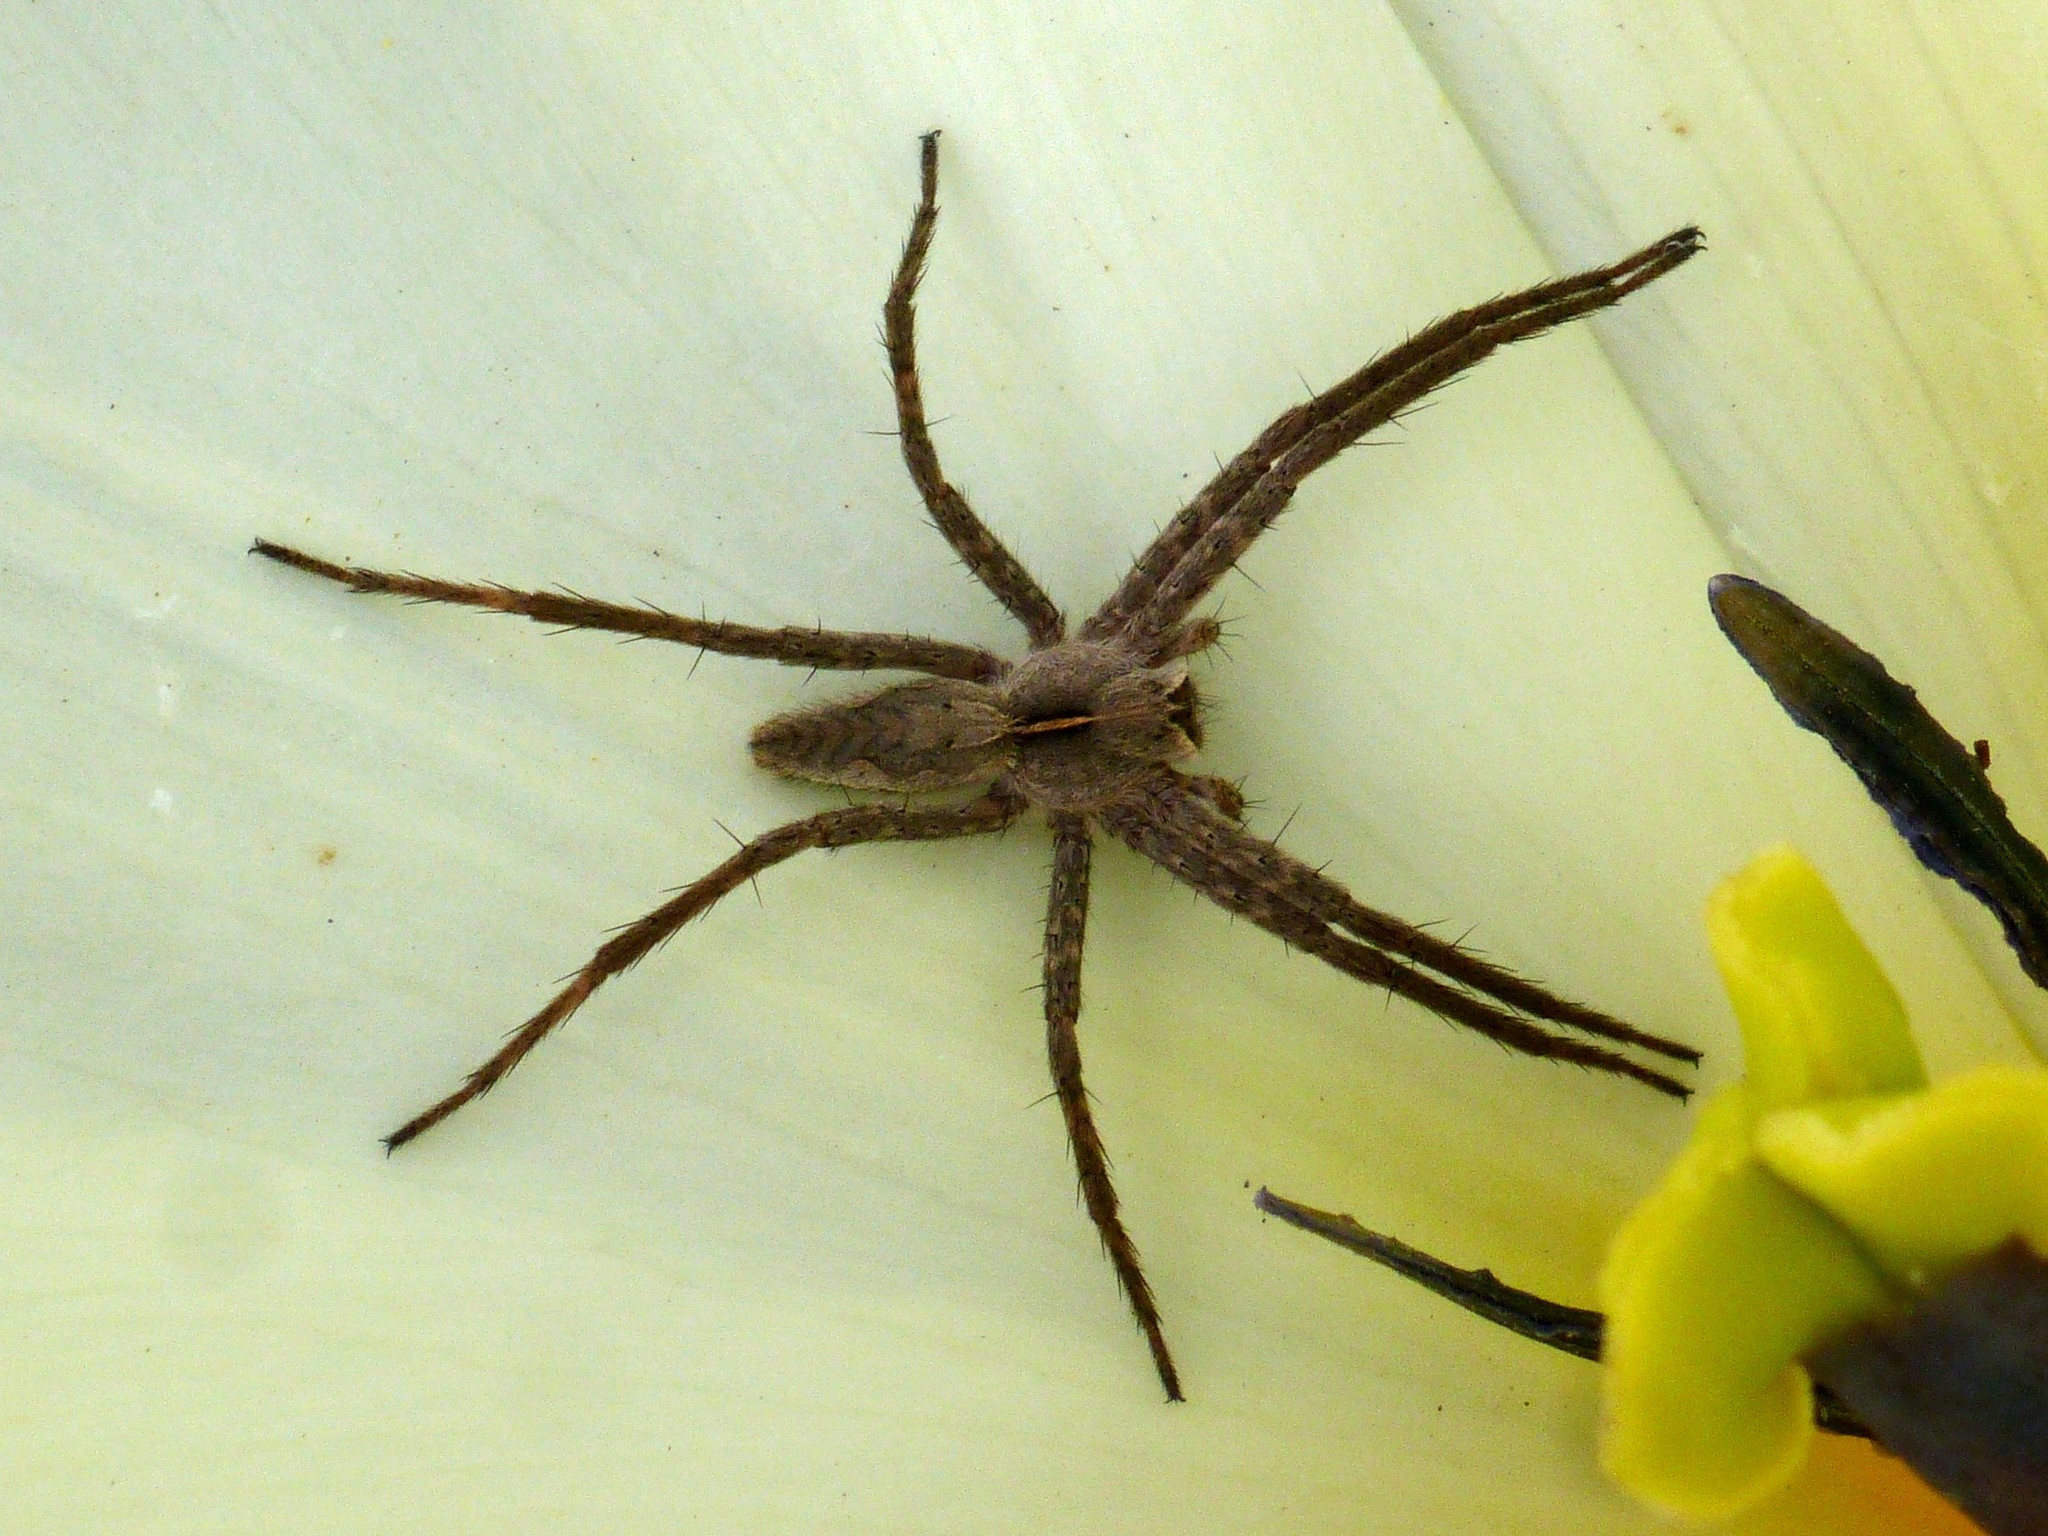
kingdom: Animalia
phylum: Arthropoda
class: Arachnida
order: Araneae
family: Pisauridae
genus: Pisaura
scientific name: Pisaura
